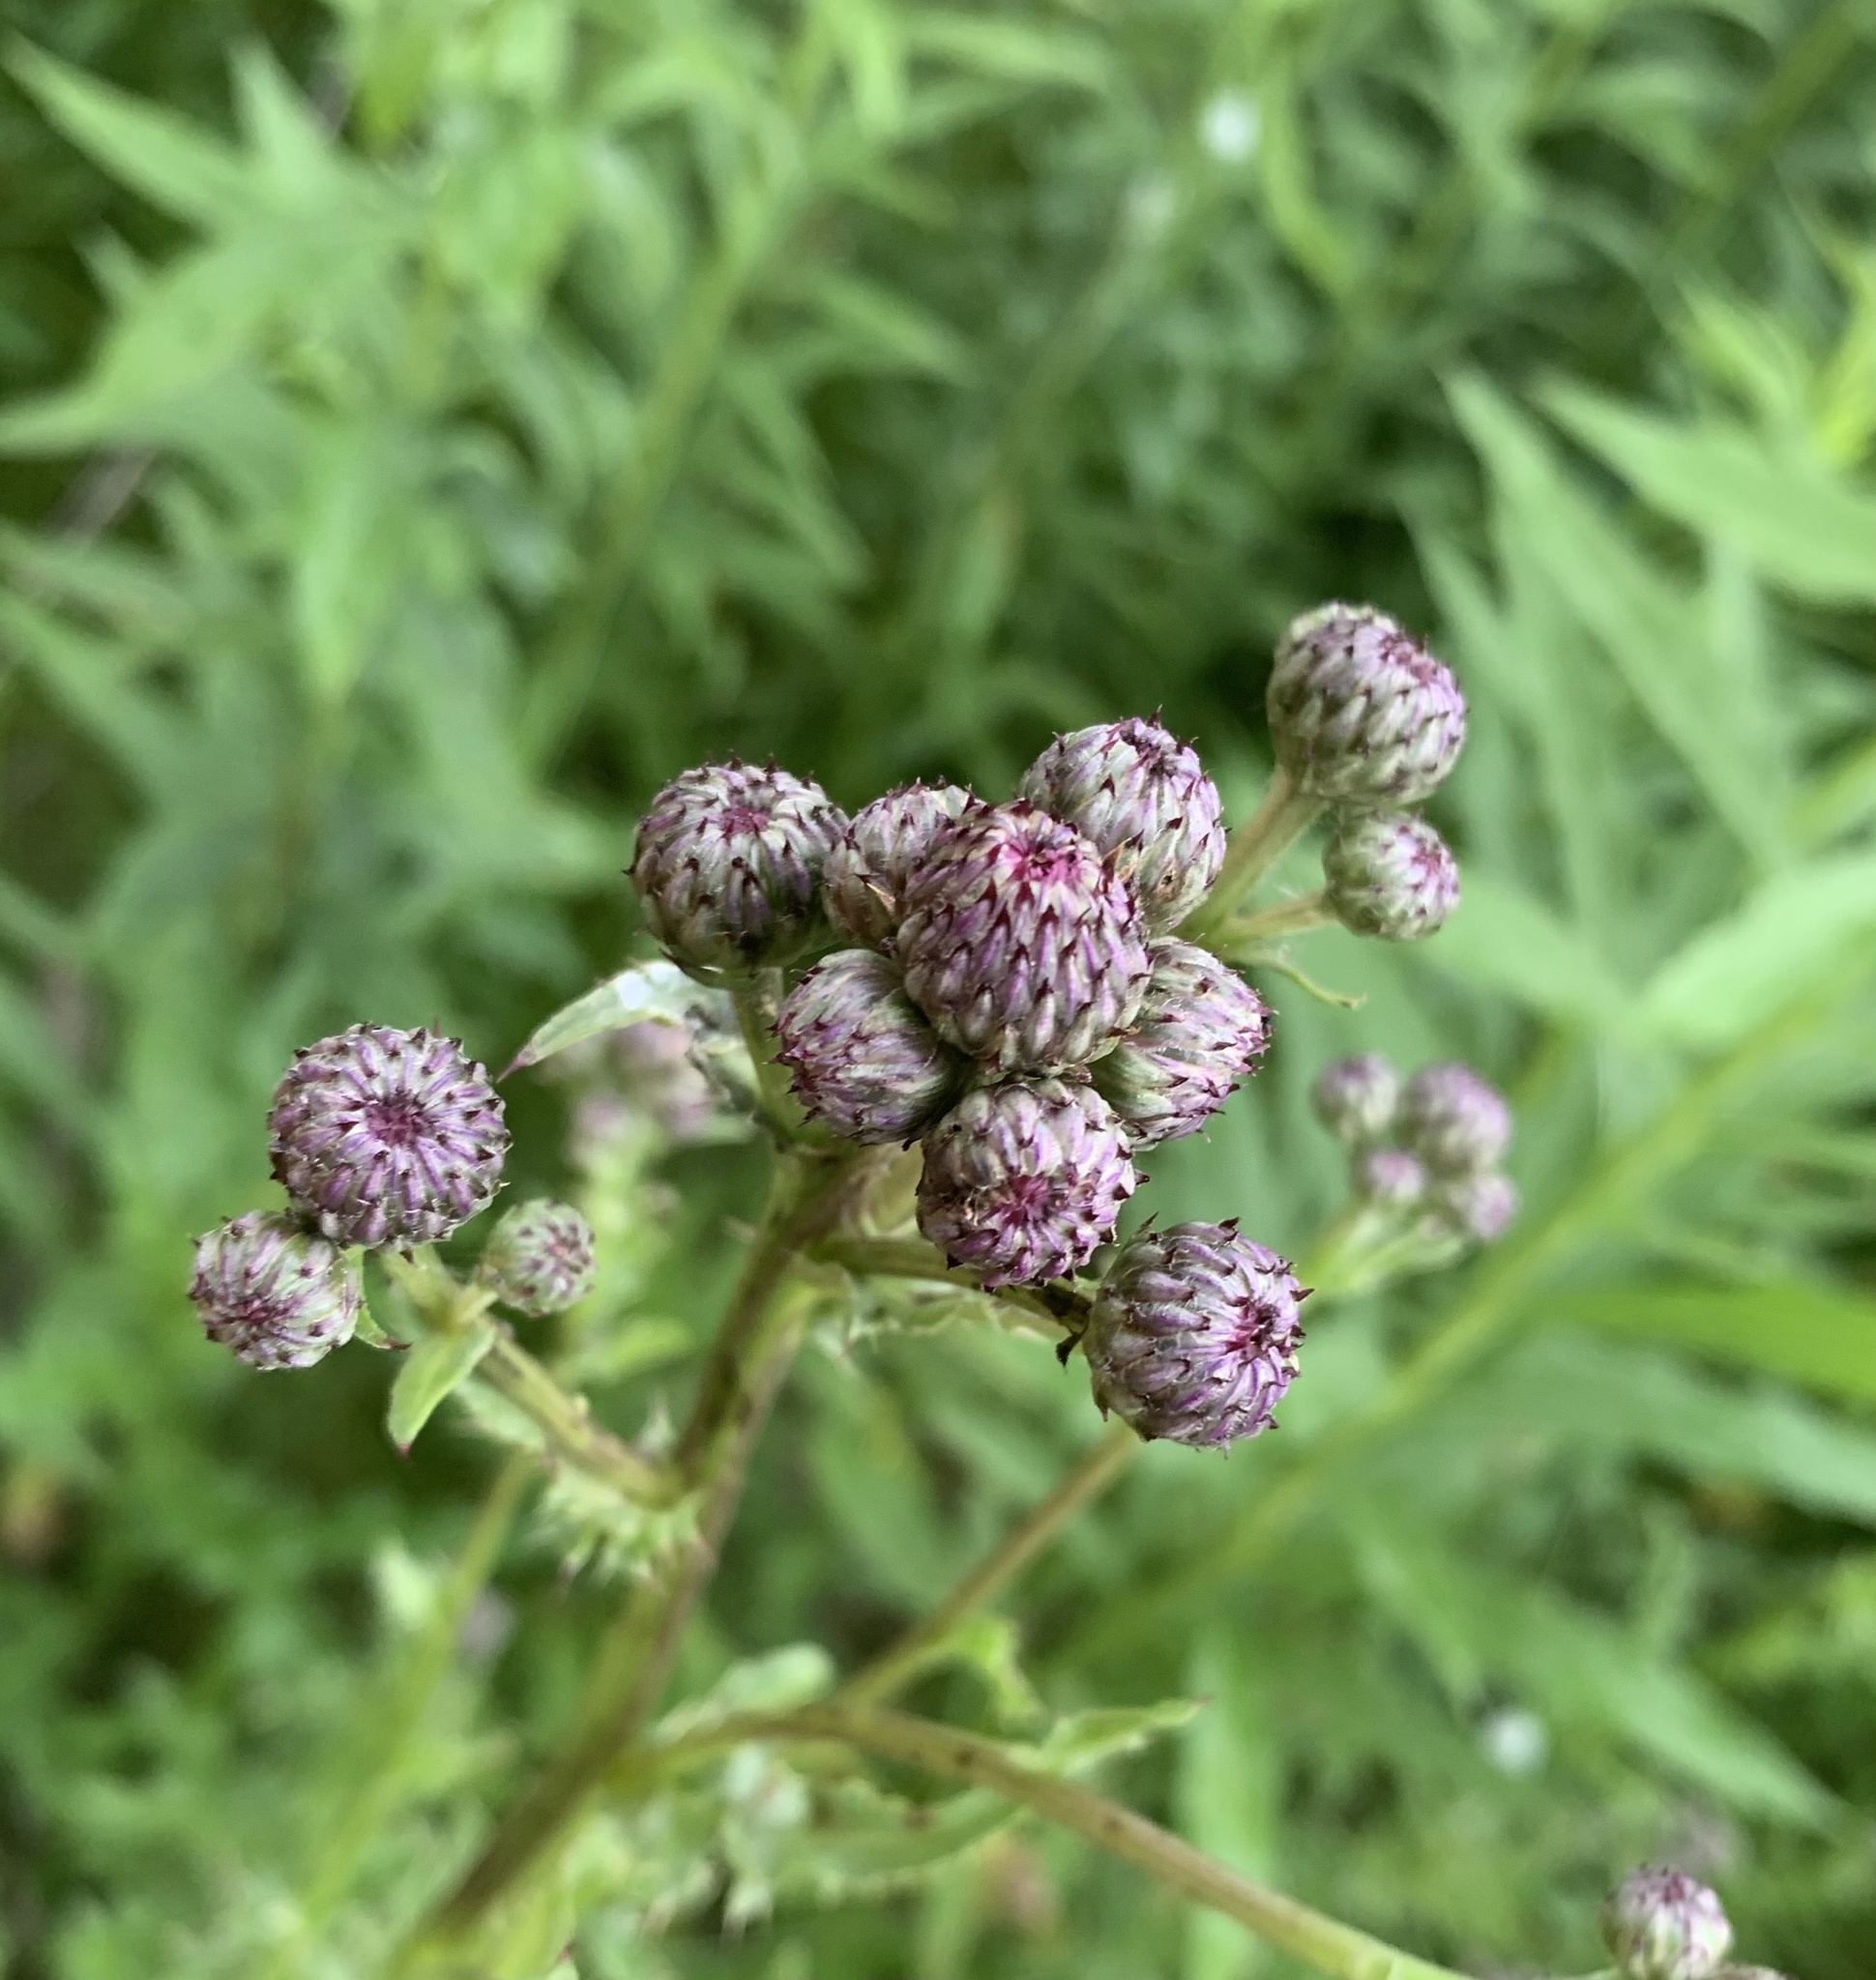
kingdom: Plantae
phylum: Tracheophyta
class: Magnoliopsida
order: Asterales
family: Asteraceae
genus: Cirsium
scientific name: Cirsium arvense
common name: Creeping thistle
